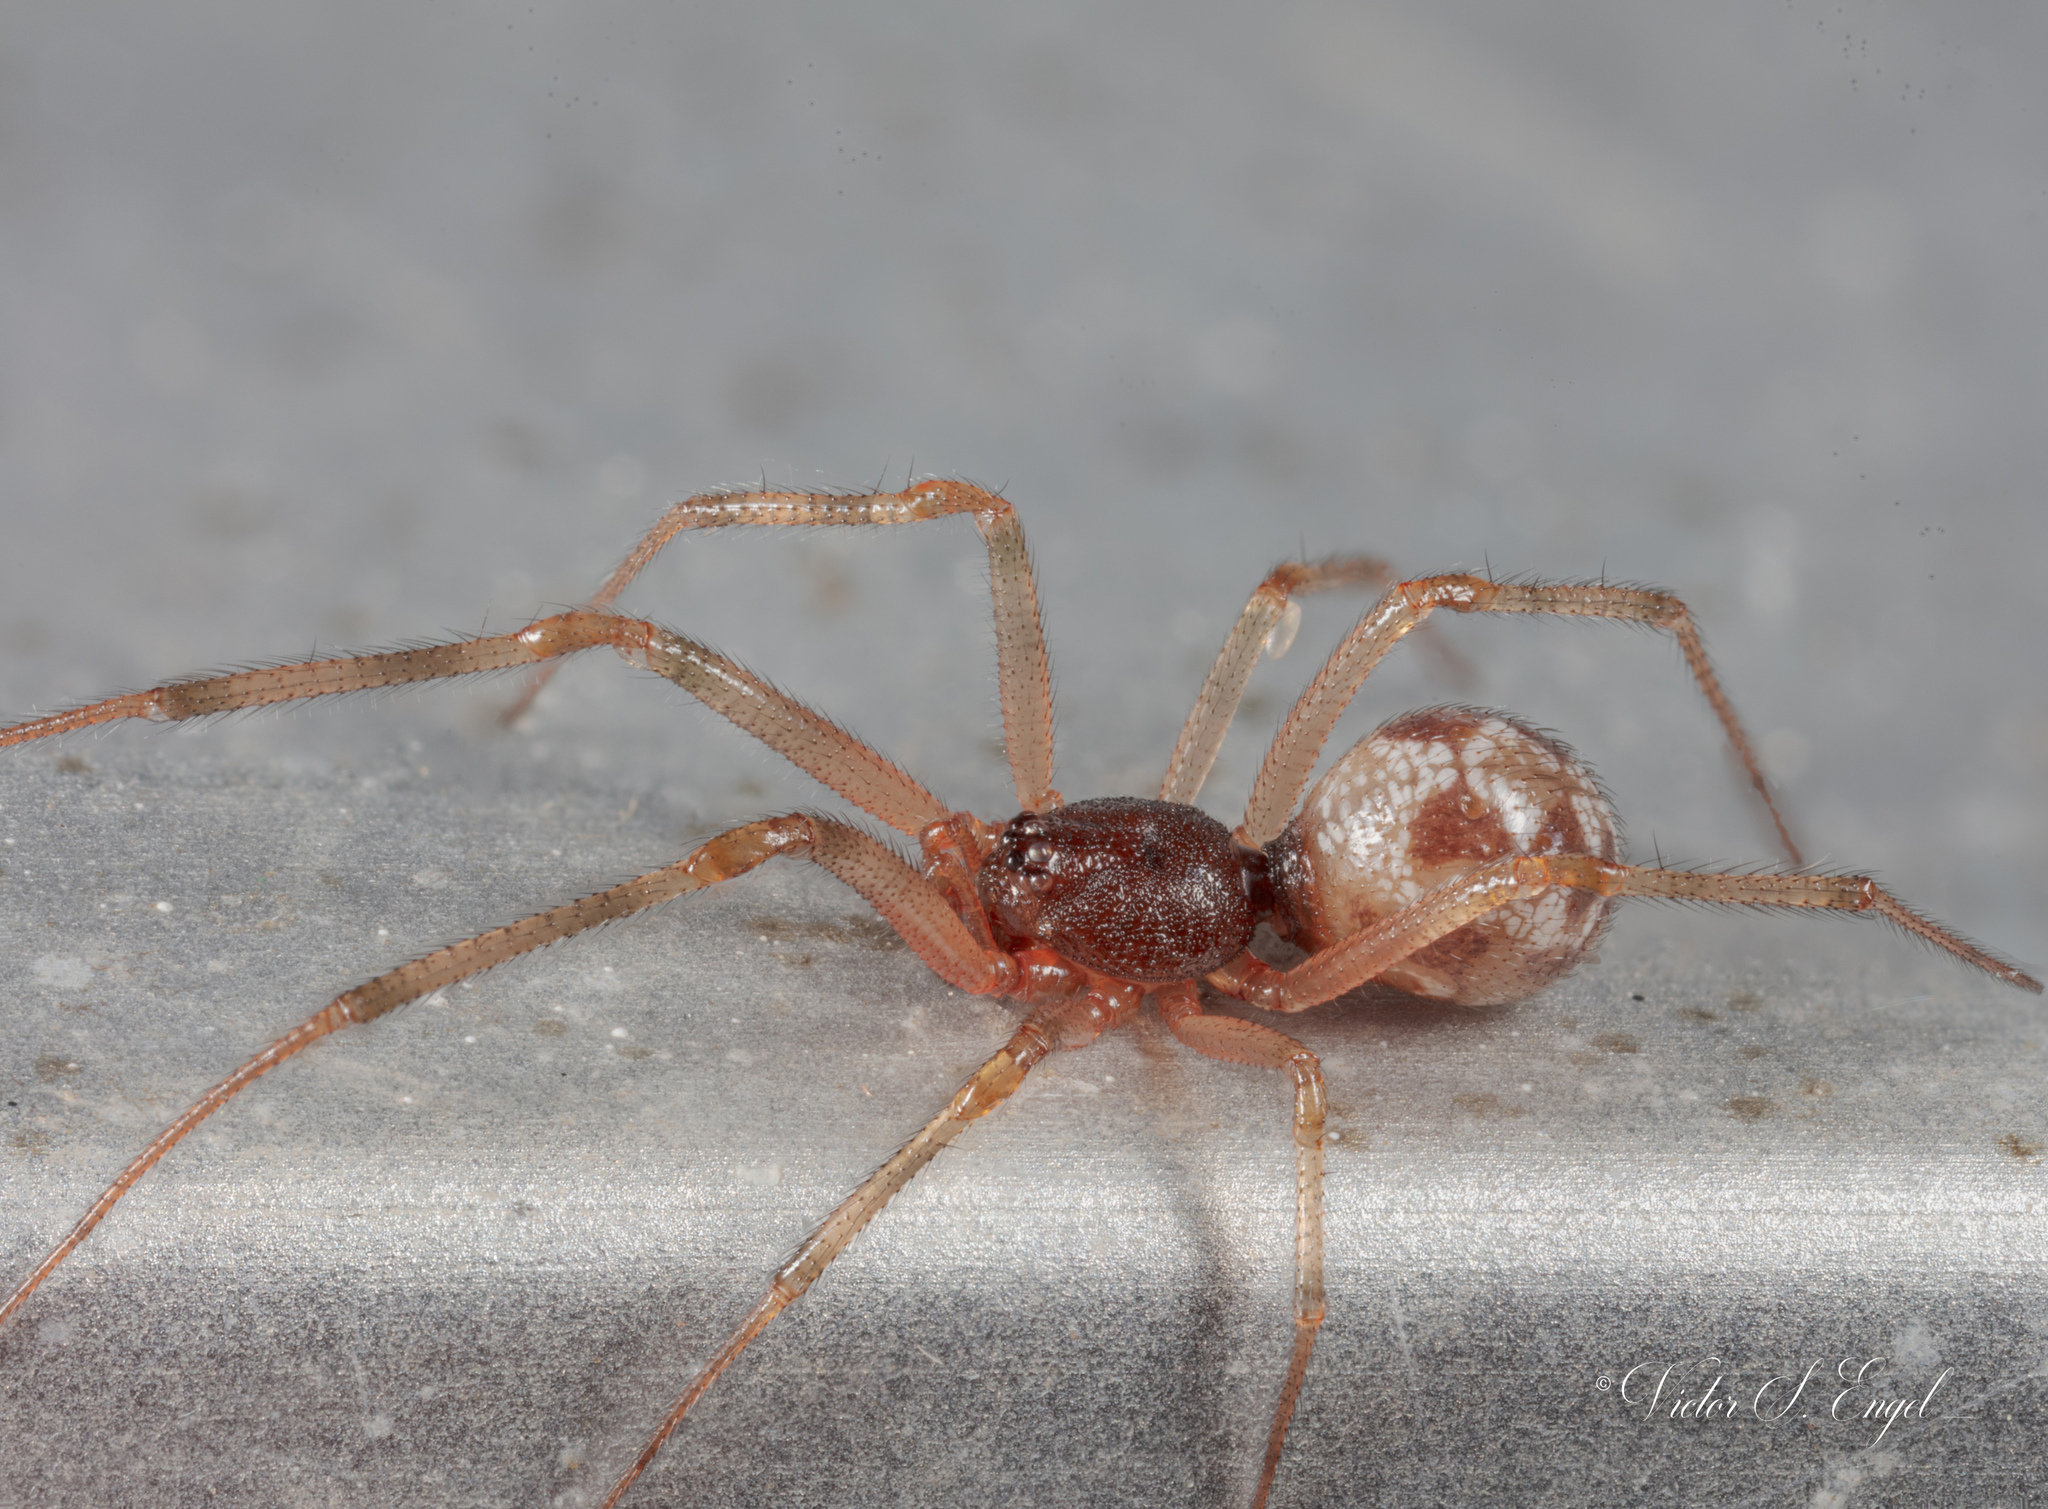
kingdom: Animalia
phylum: Arthropoda
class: Arachnida
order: Araneae
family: Theridiidae
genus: Steatoda
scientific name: Steatoda triangulosa
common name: Triangulate bud spider
